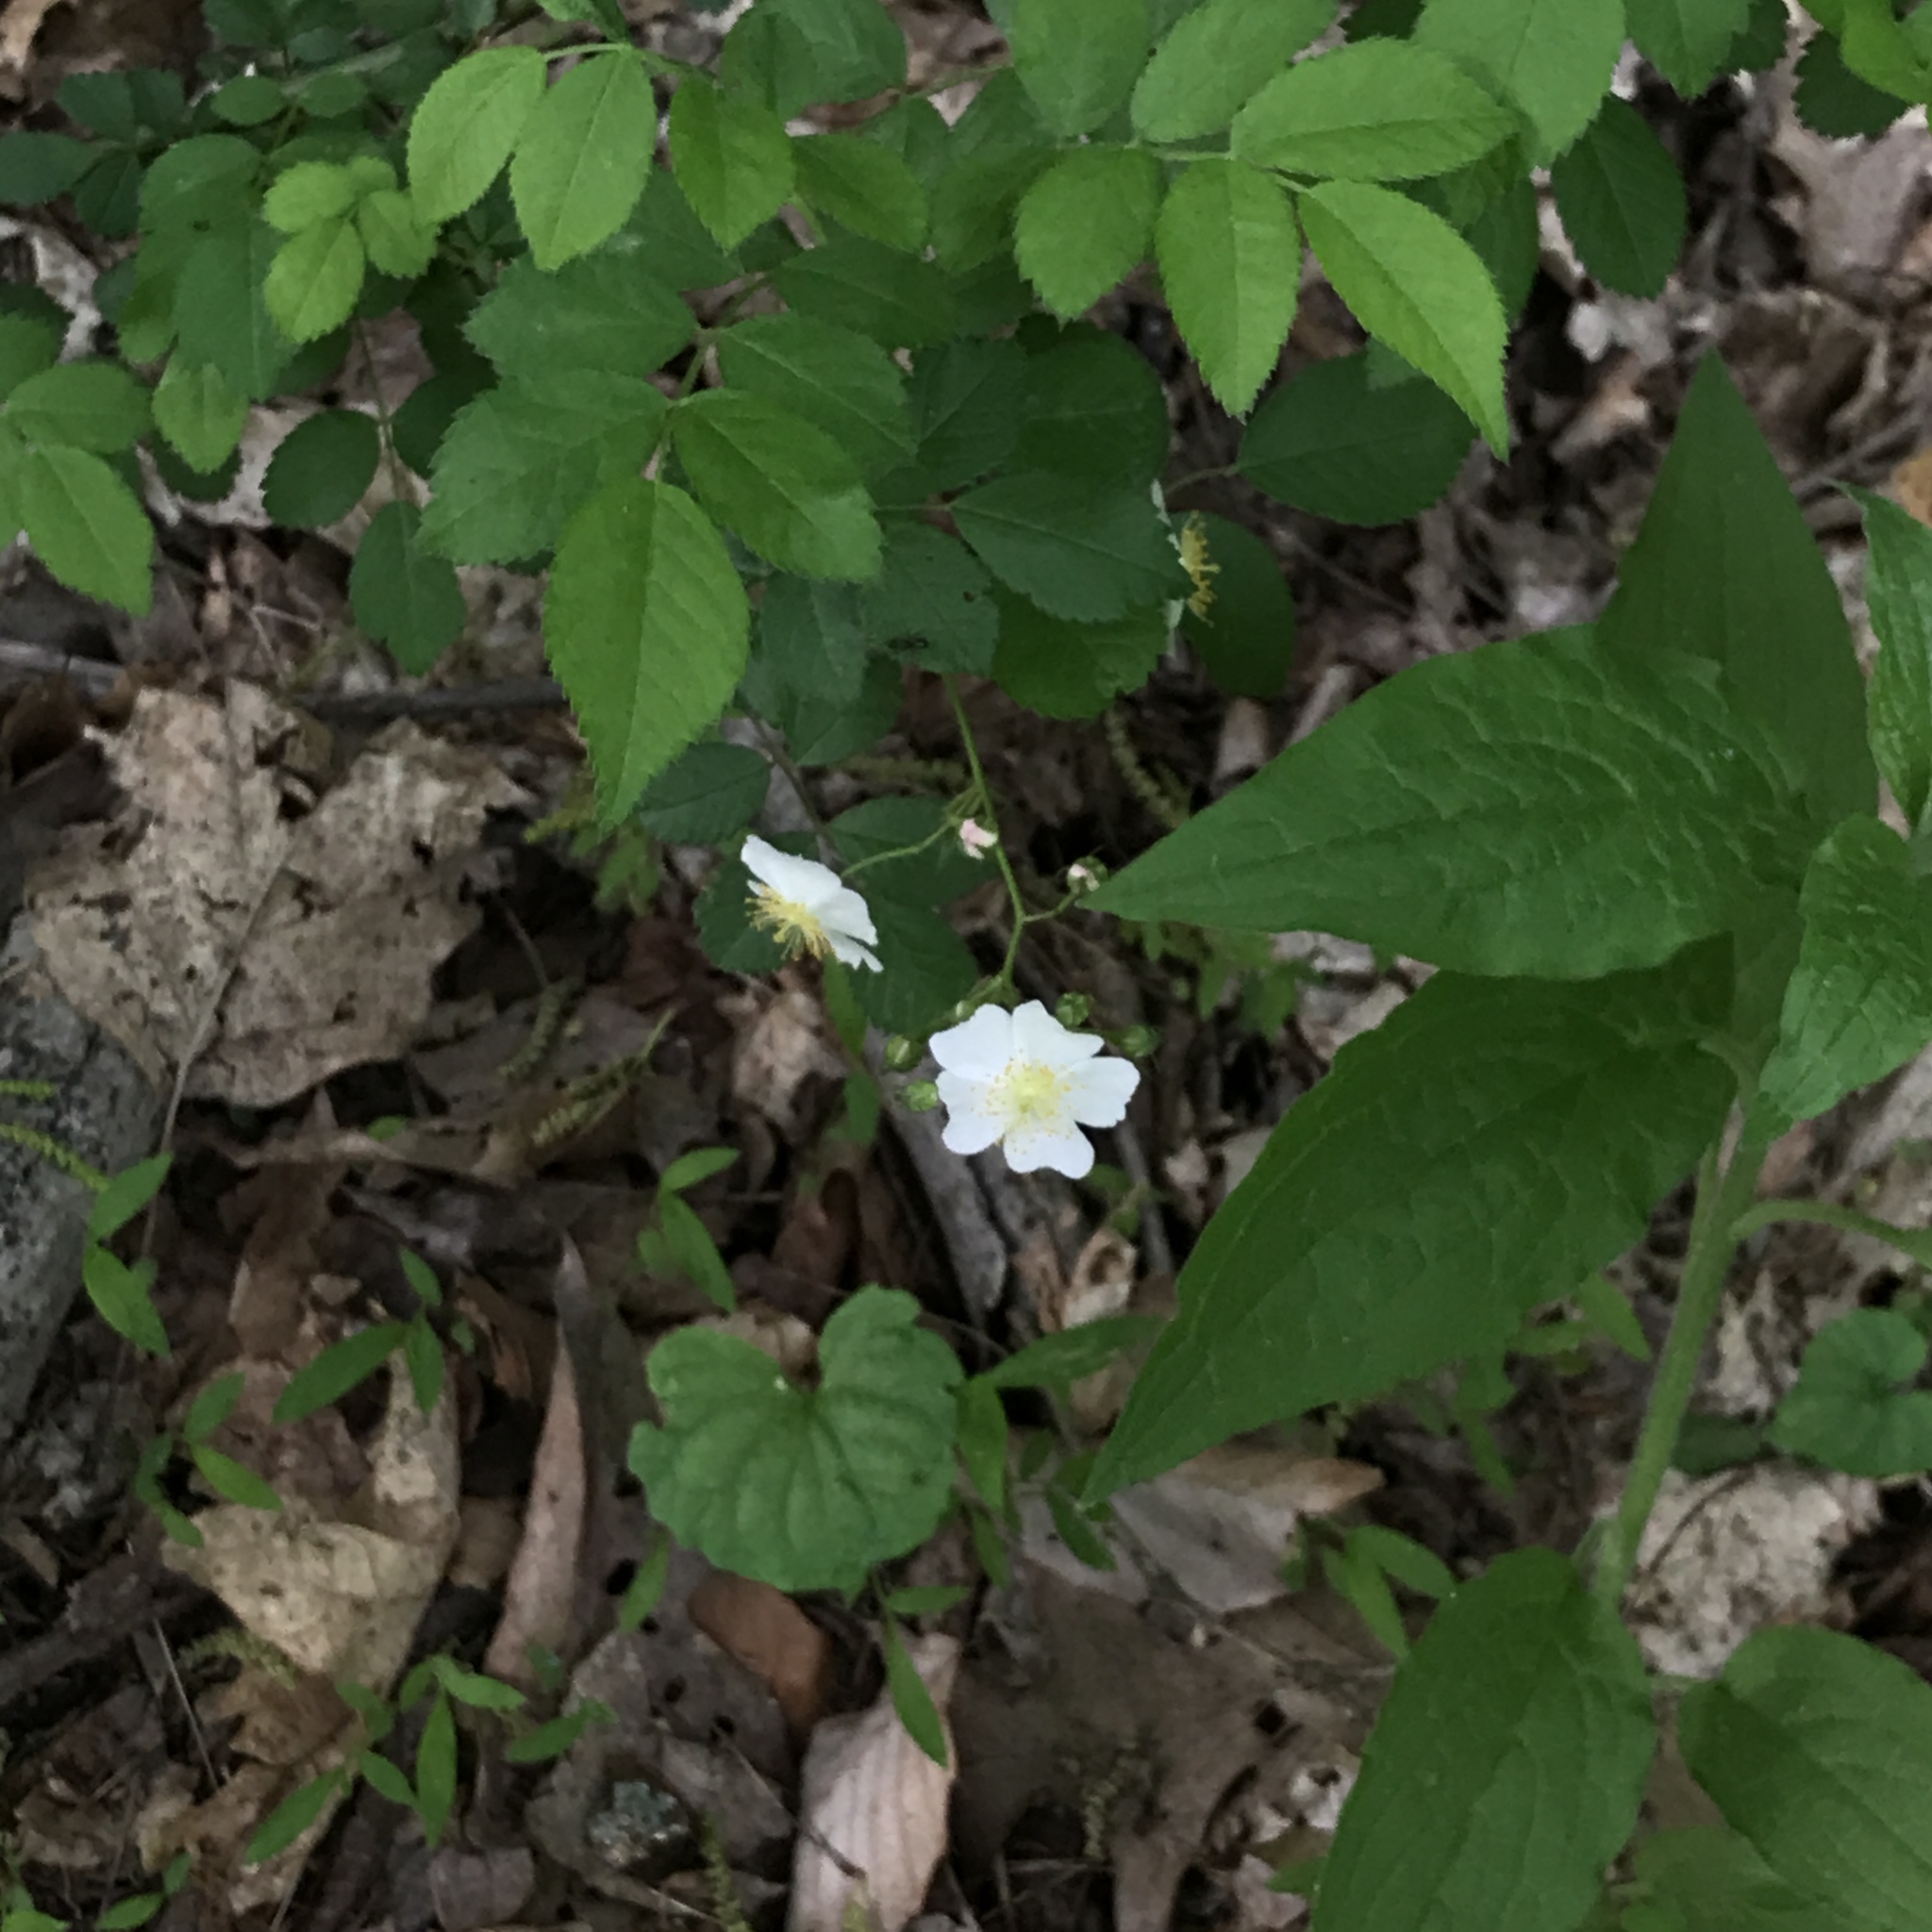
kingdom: Plantae
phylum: Tracheophyta
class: Magnoliopsida
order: Rosales
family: Rosaceae
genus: Rosa
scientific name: Rosa multiflora
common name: Multiflora rose
